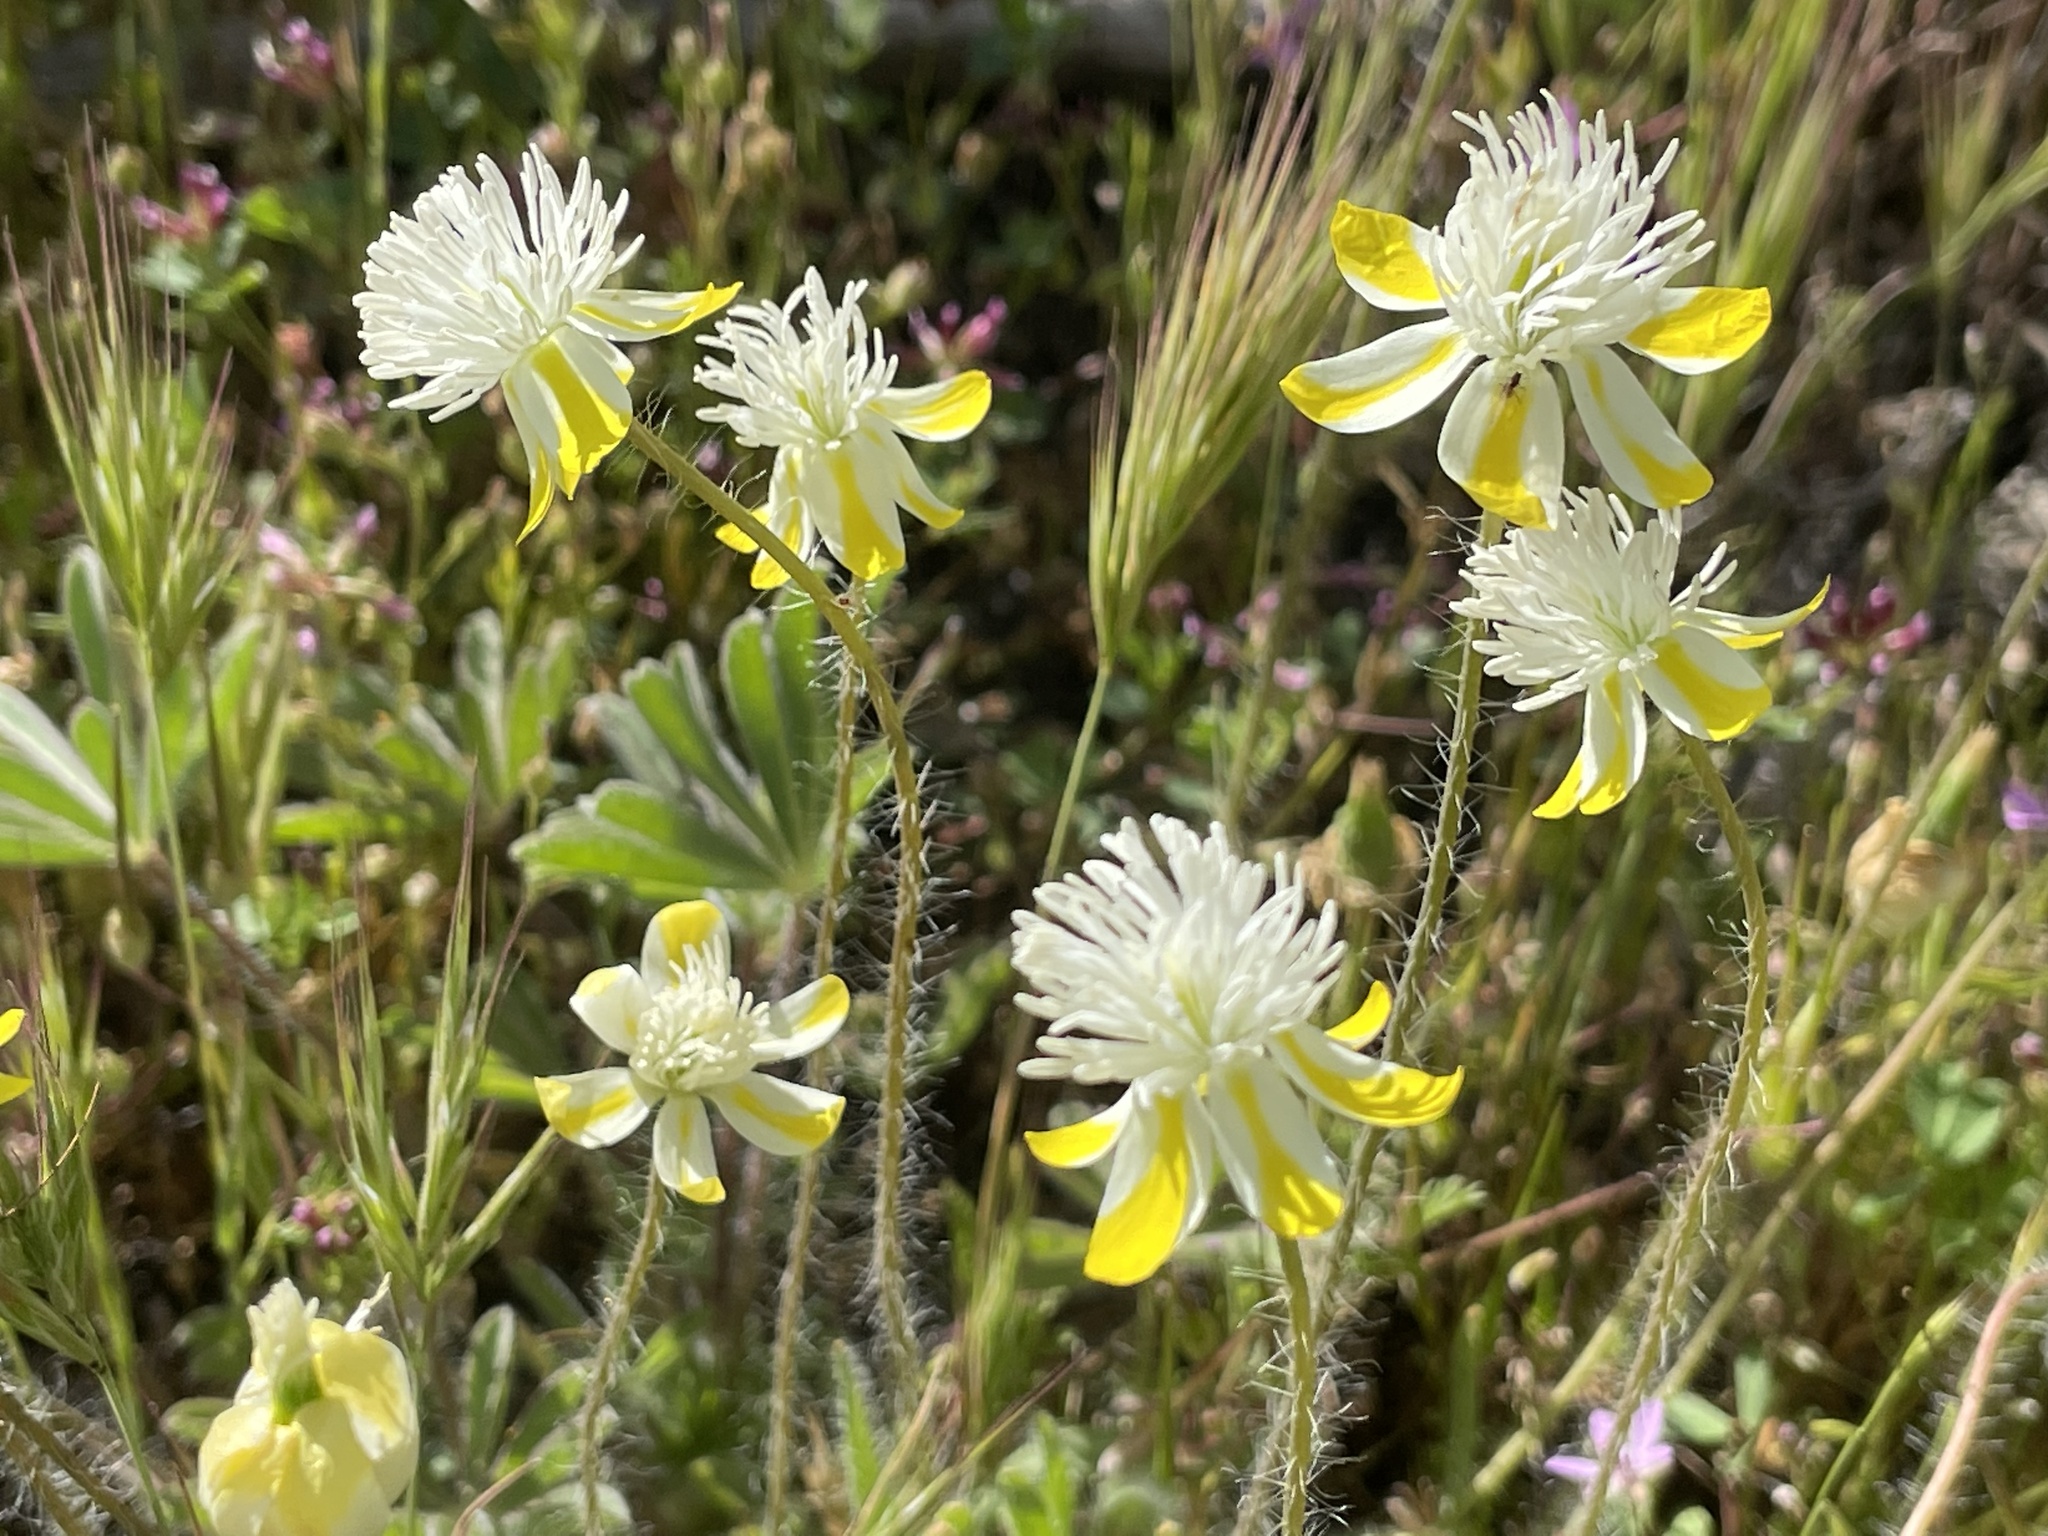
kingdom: Plantae
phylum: Tracheophyta
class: Magnoliopsida
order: Ranunculales
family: Papaveraceae
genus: Platystemon
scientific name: Platystemon californicus
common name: Cream-cups
